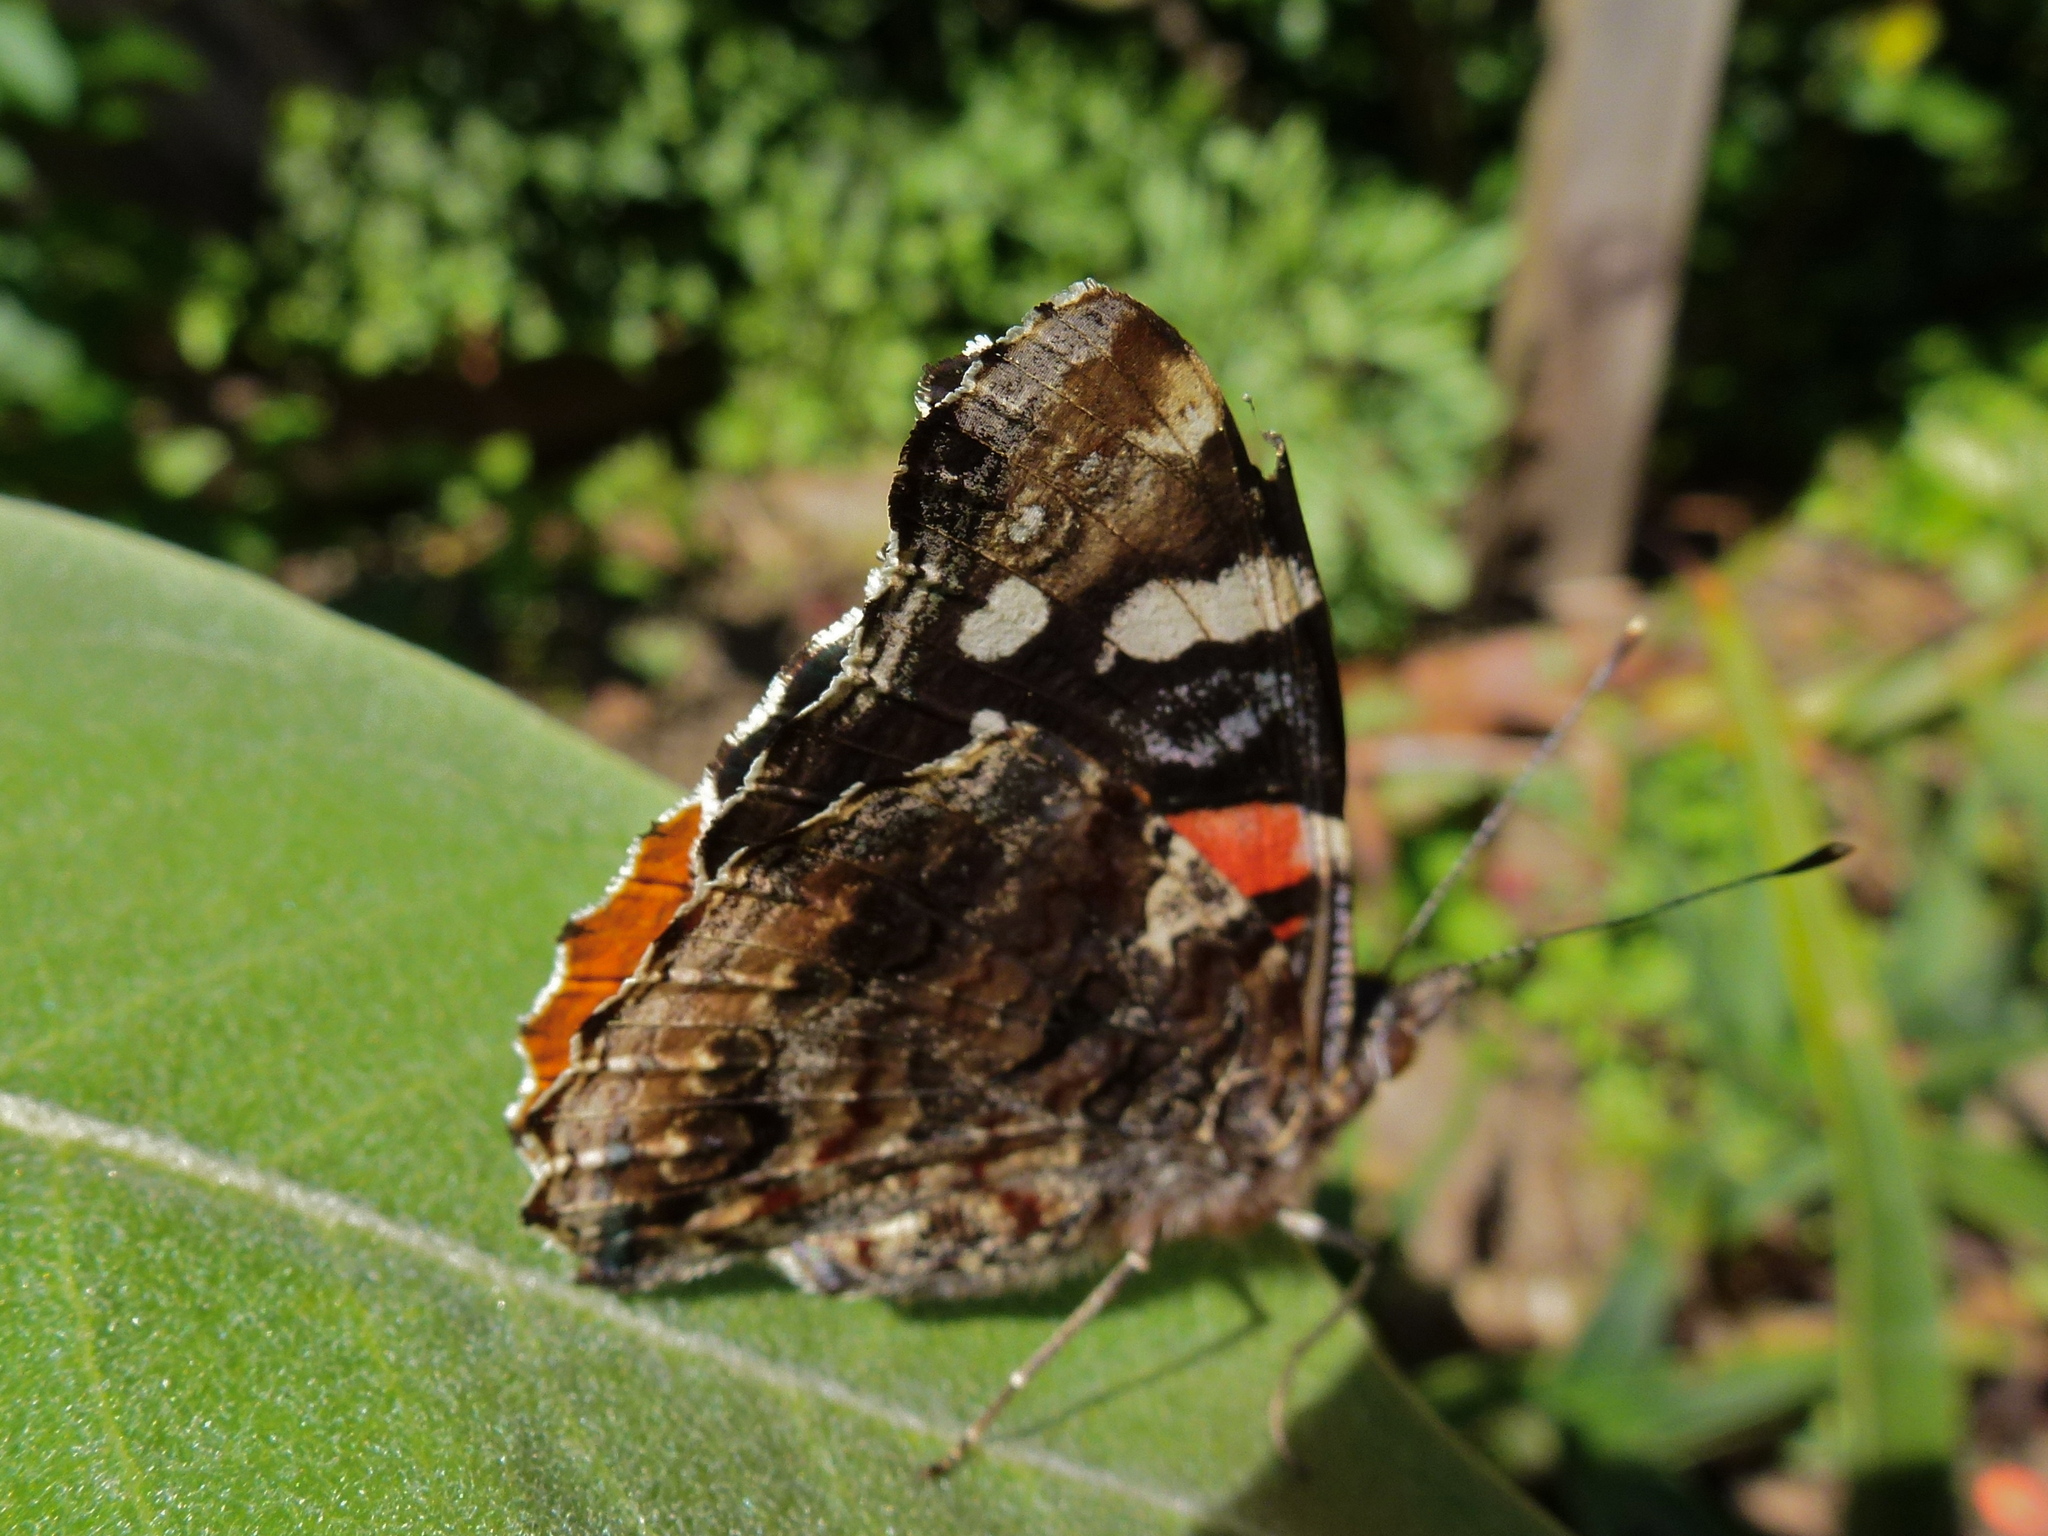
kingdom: Animalia
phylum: Arthropoda
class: Insecta
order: Lepidoptera
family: Nymphalidae
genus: Vanessa
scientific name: Vanessa atalanta
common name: Red admiral
